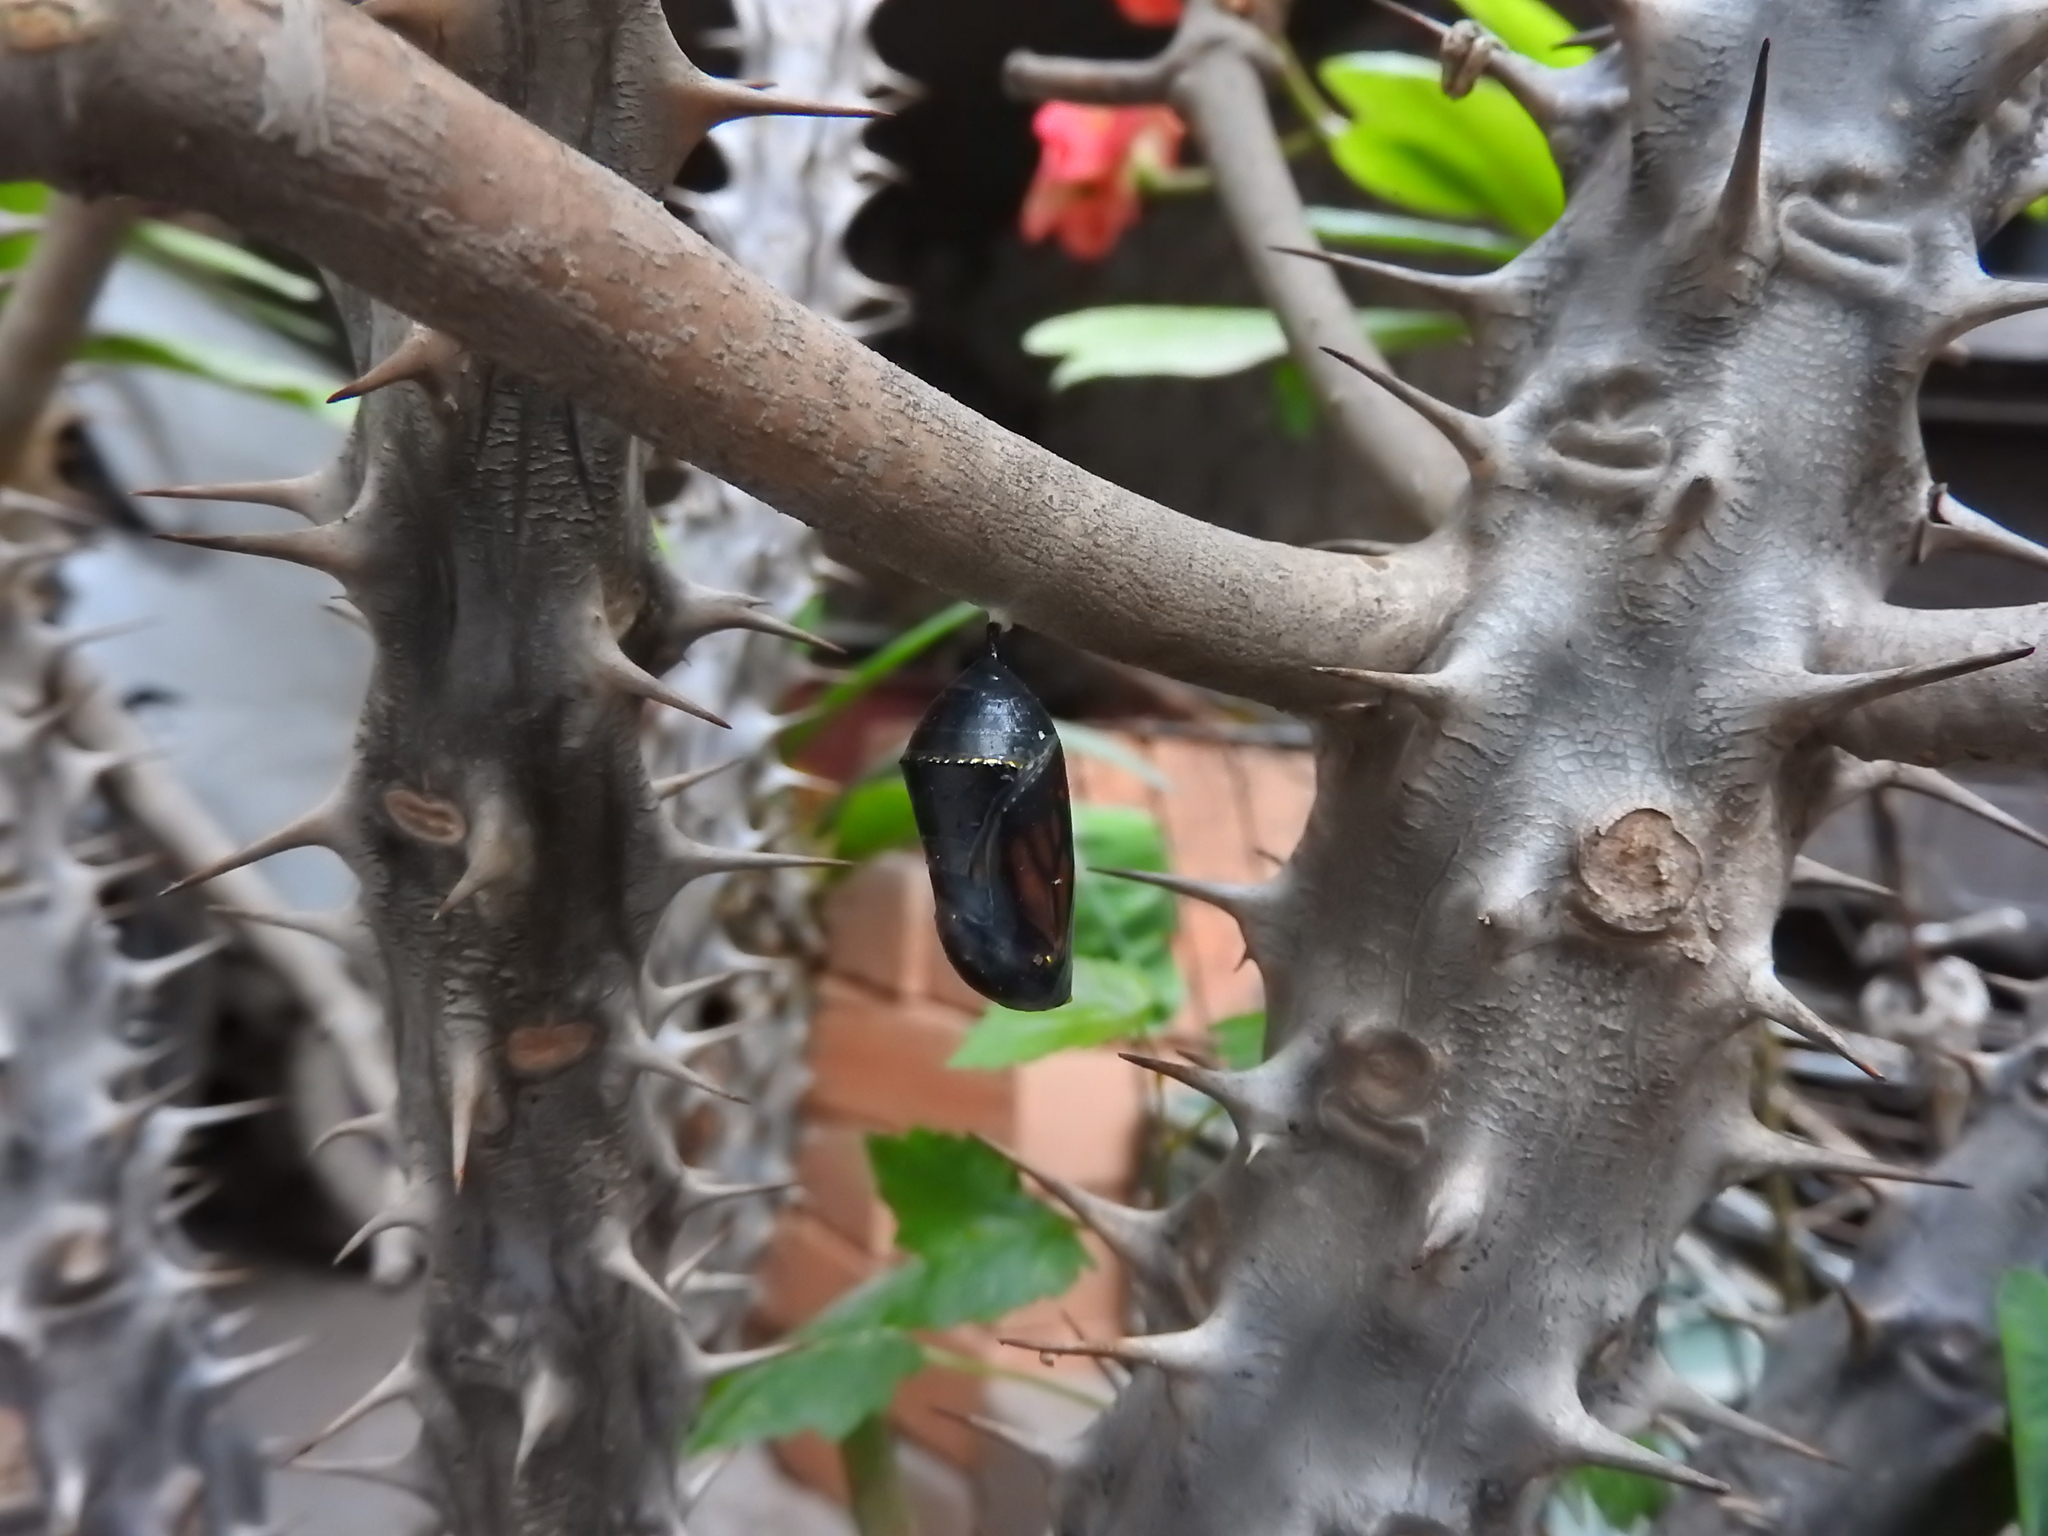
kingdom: Animalia
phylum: Arthropoda
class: Insecta
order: Lepidoptera
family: Nymphalidae
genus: Danaus
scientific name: Danaus plexippus
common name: Monarch
